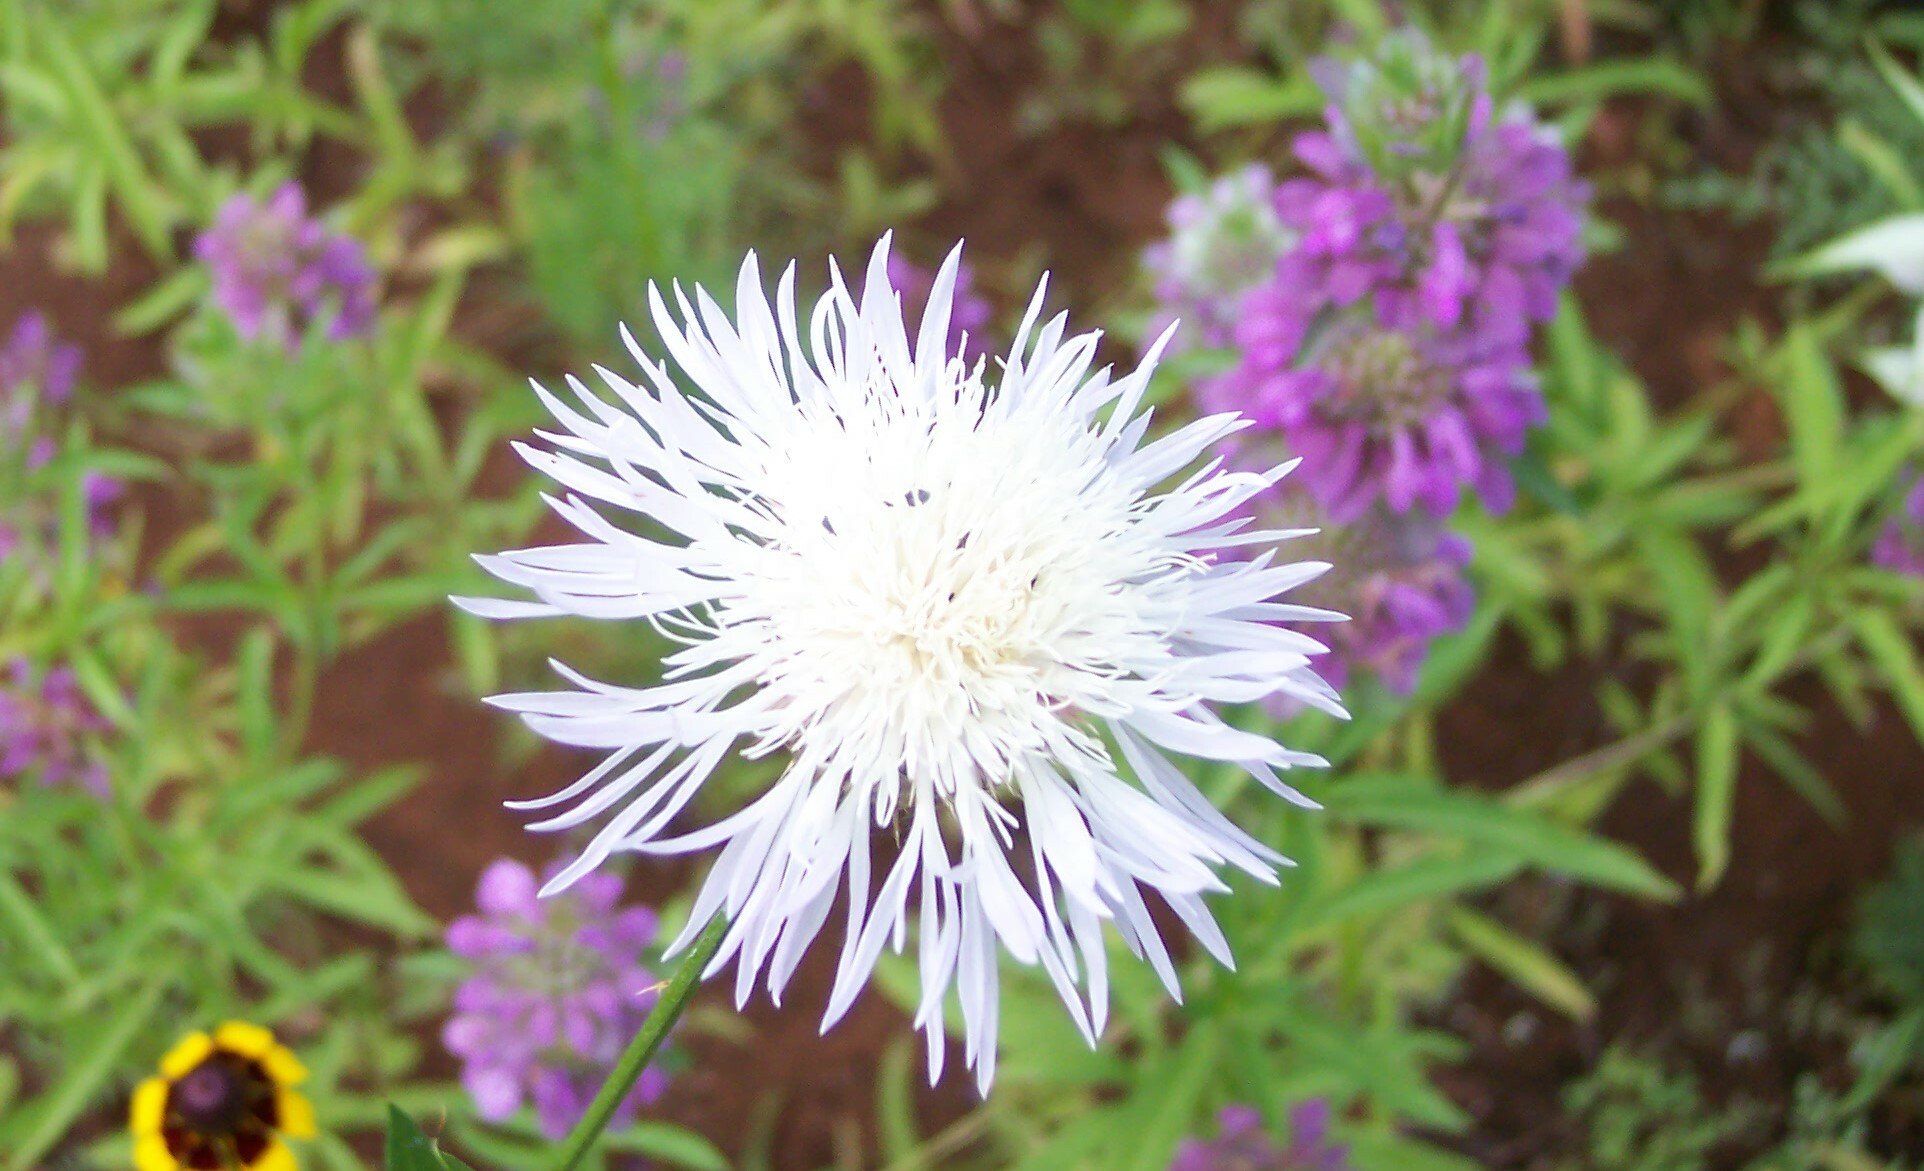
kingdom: Plantae
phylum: Tracheophyta
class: Magnoliopsida
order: Asterales
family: Asteraceae
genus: Plectocephalus
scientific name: Plectocephalus americanus
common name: American basket-flower
